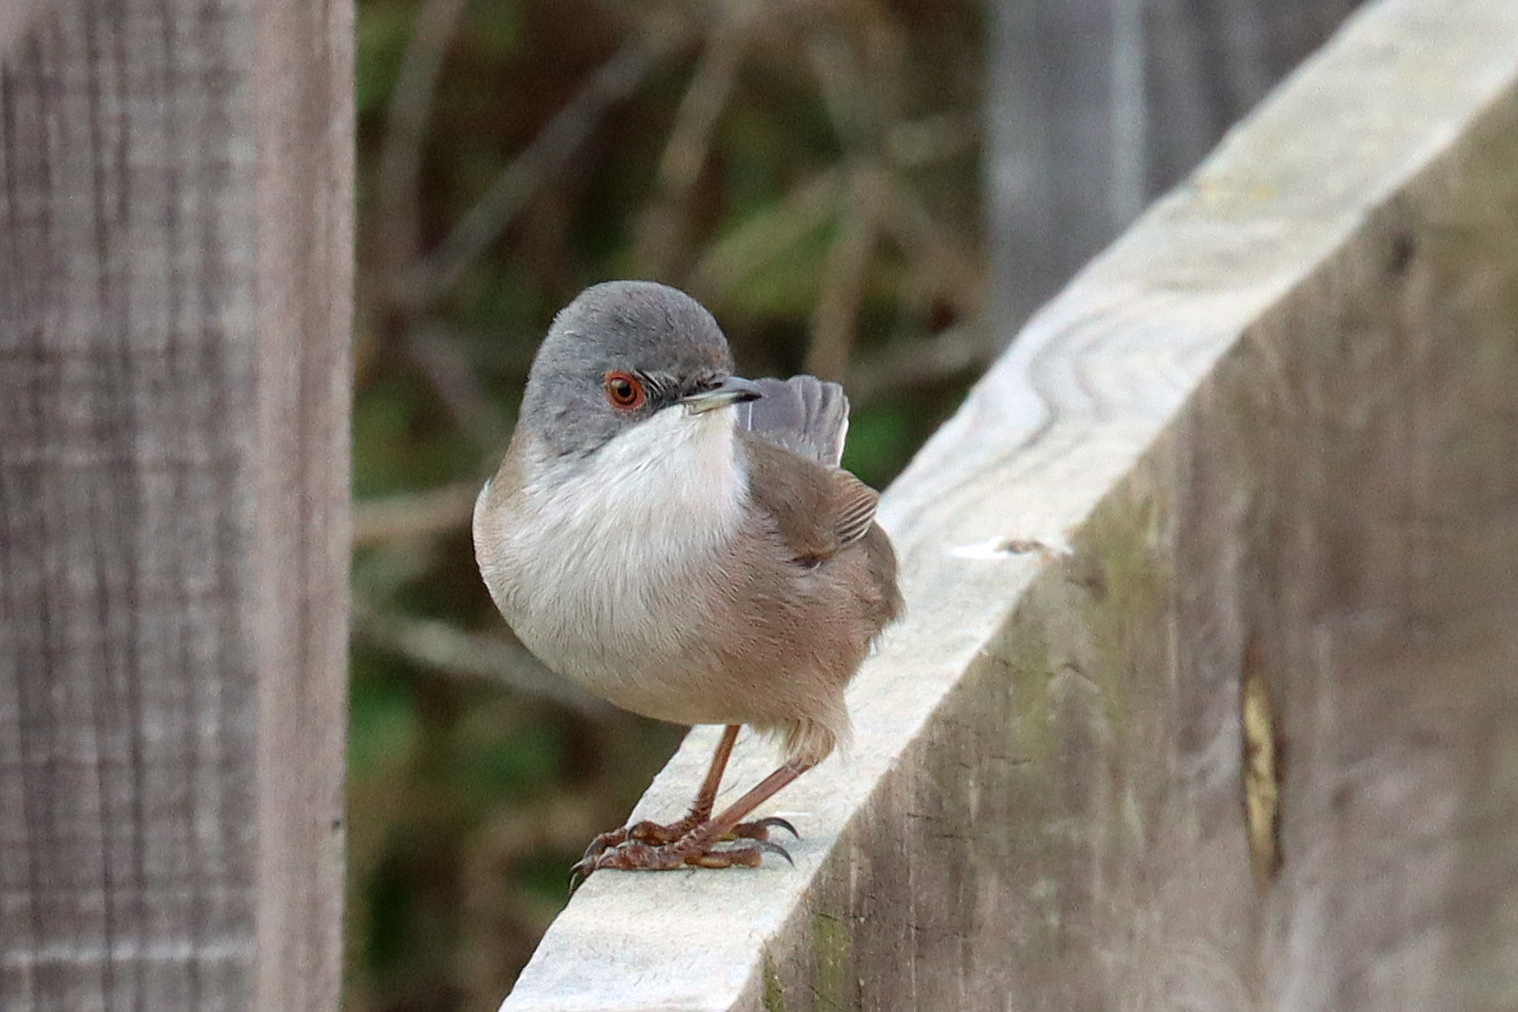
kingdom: Animalia
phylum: Chordata
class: Aves
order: Passeriformes
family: Sylviidae
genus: Curruca
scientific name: Curruca melanocephala
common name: Sardinian warbler
